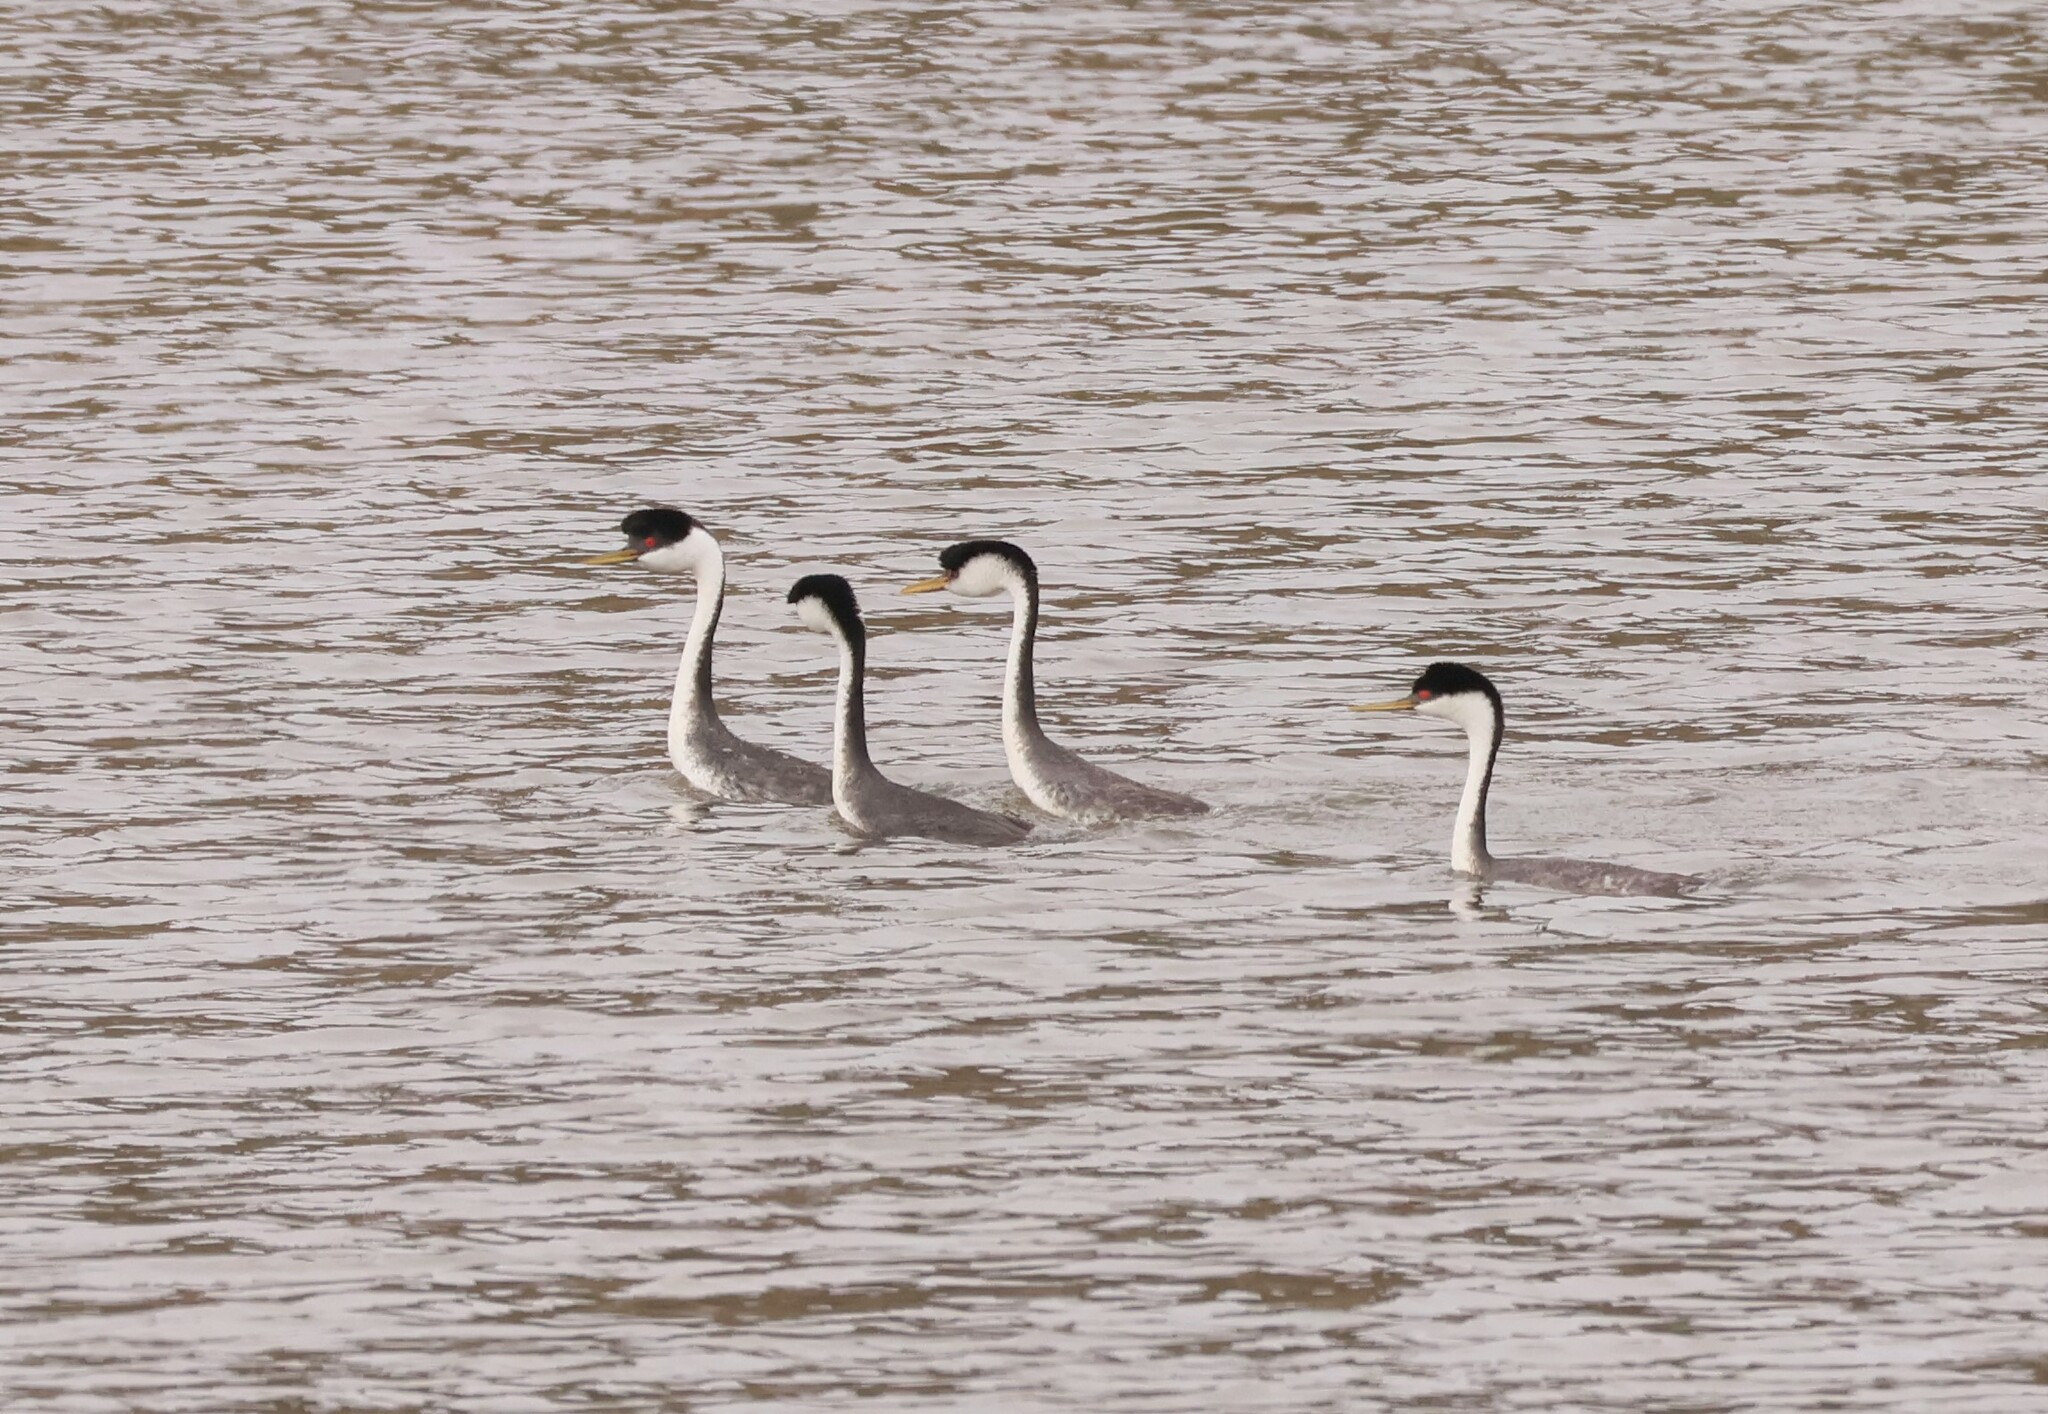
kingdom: Animalia
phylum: Chordata
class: Aves
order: Podicipediformes
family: Podicipedidae
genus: Aechmophorus
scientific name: Aechmophorus occidentalis
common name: Western grebe
